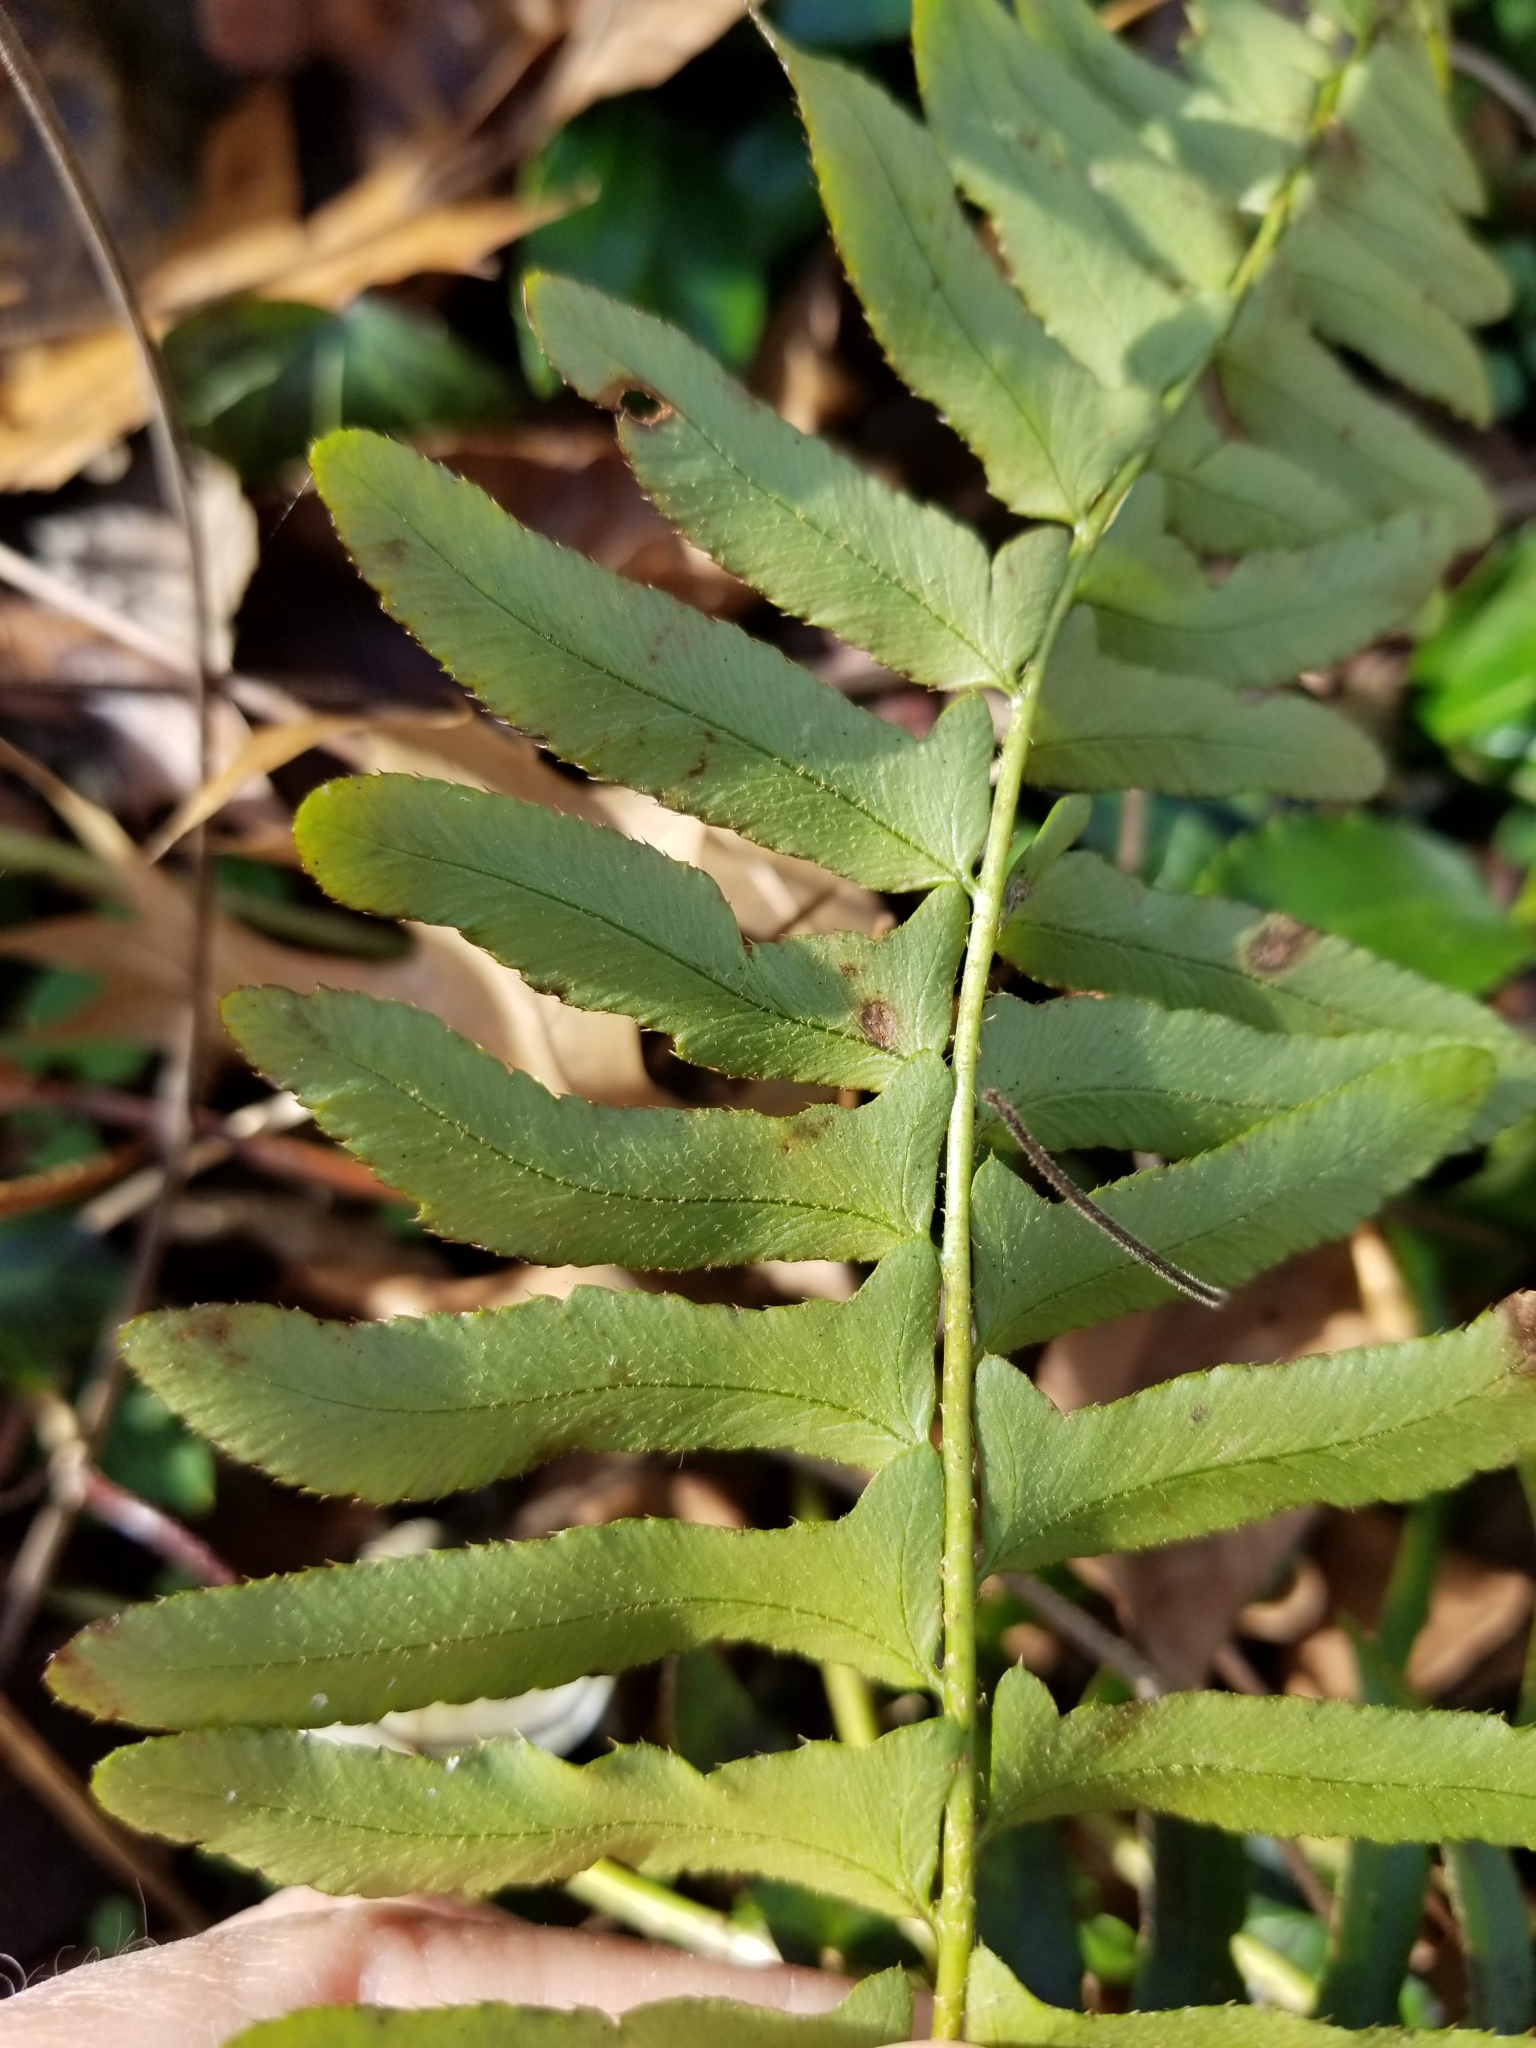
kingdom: Plantae
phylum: Tracheophyta
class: Polypodiopsida
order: Polypodiales
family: Dryopteridaceae
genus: Polystichum
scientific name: Polystichum acrostichoides
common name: Christmas fern
